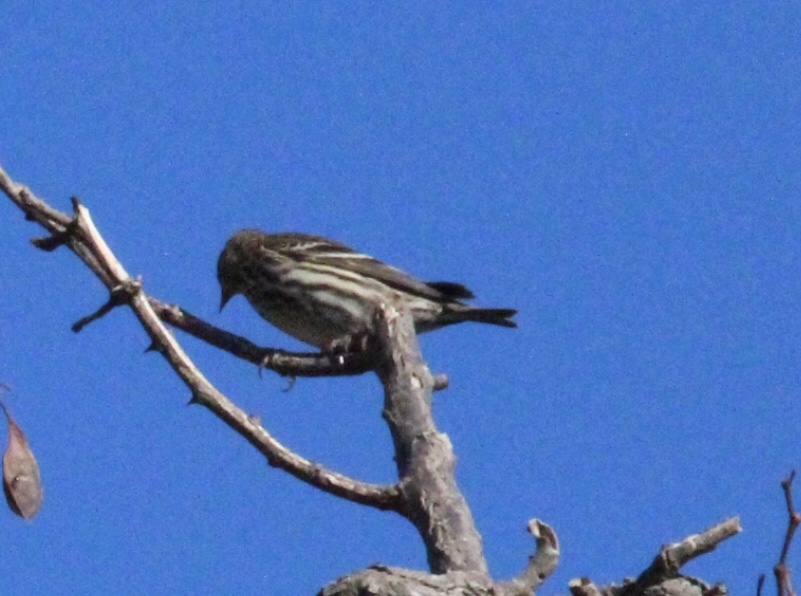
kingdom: Animalia
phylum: Chordata
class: Aves
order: Passeriformes
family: Fringillidae
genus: Spinus
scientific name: Spinus pinus
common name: Pine siskin
